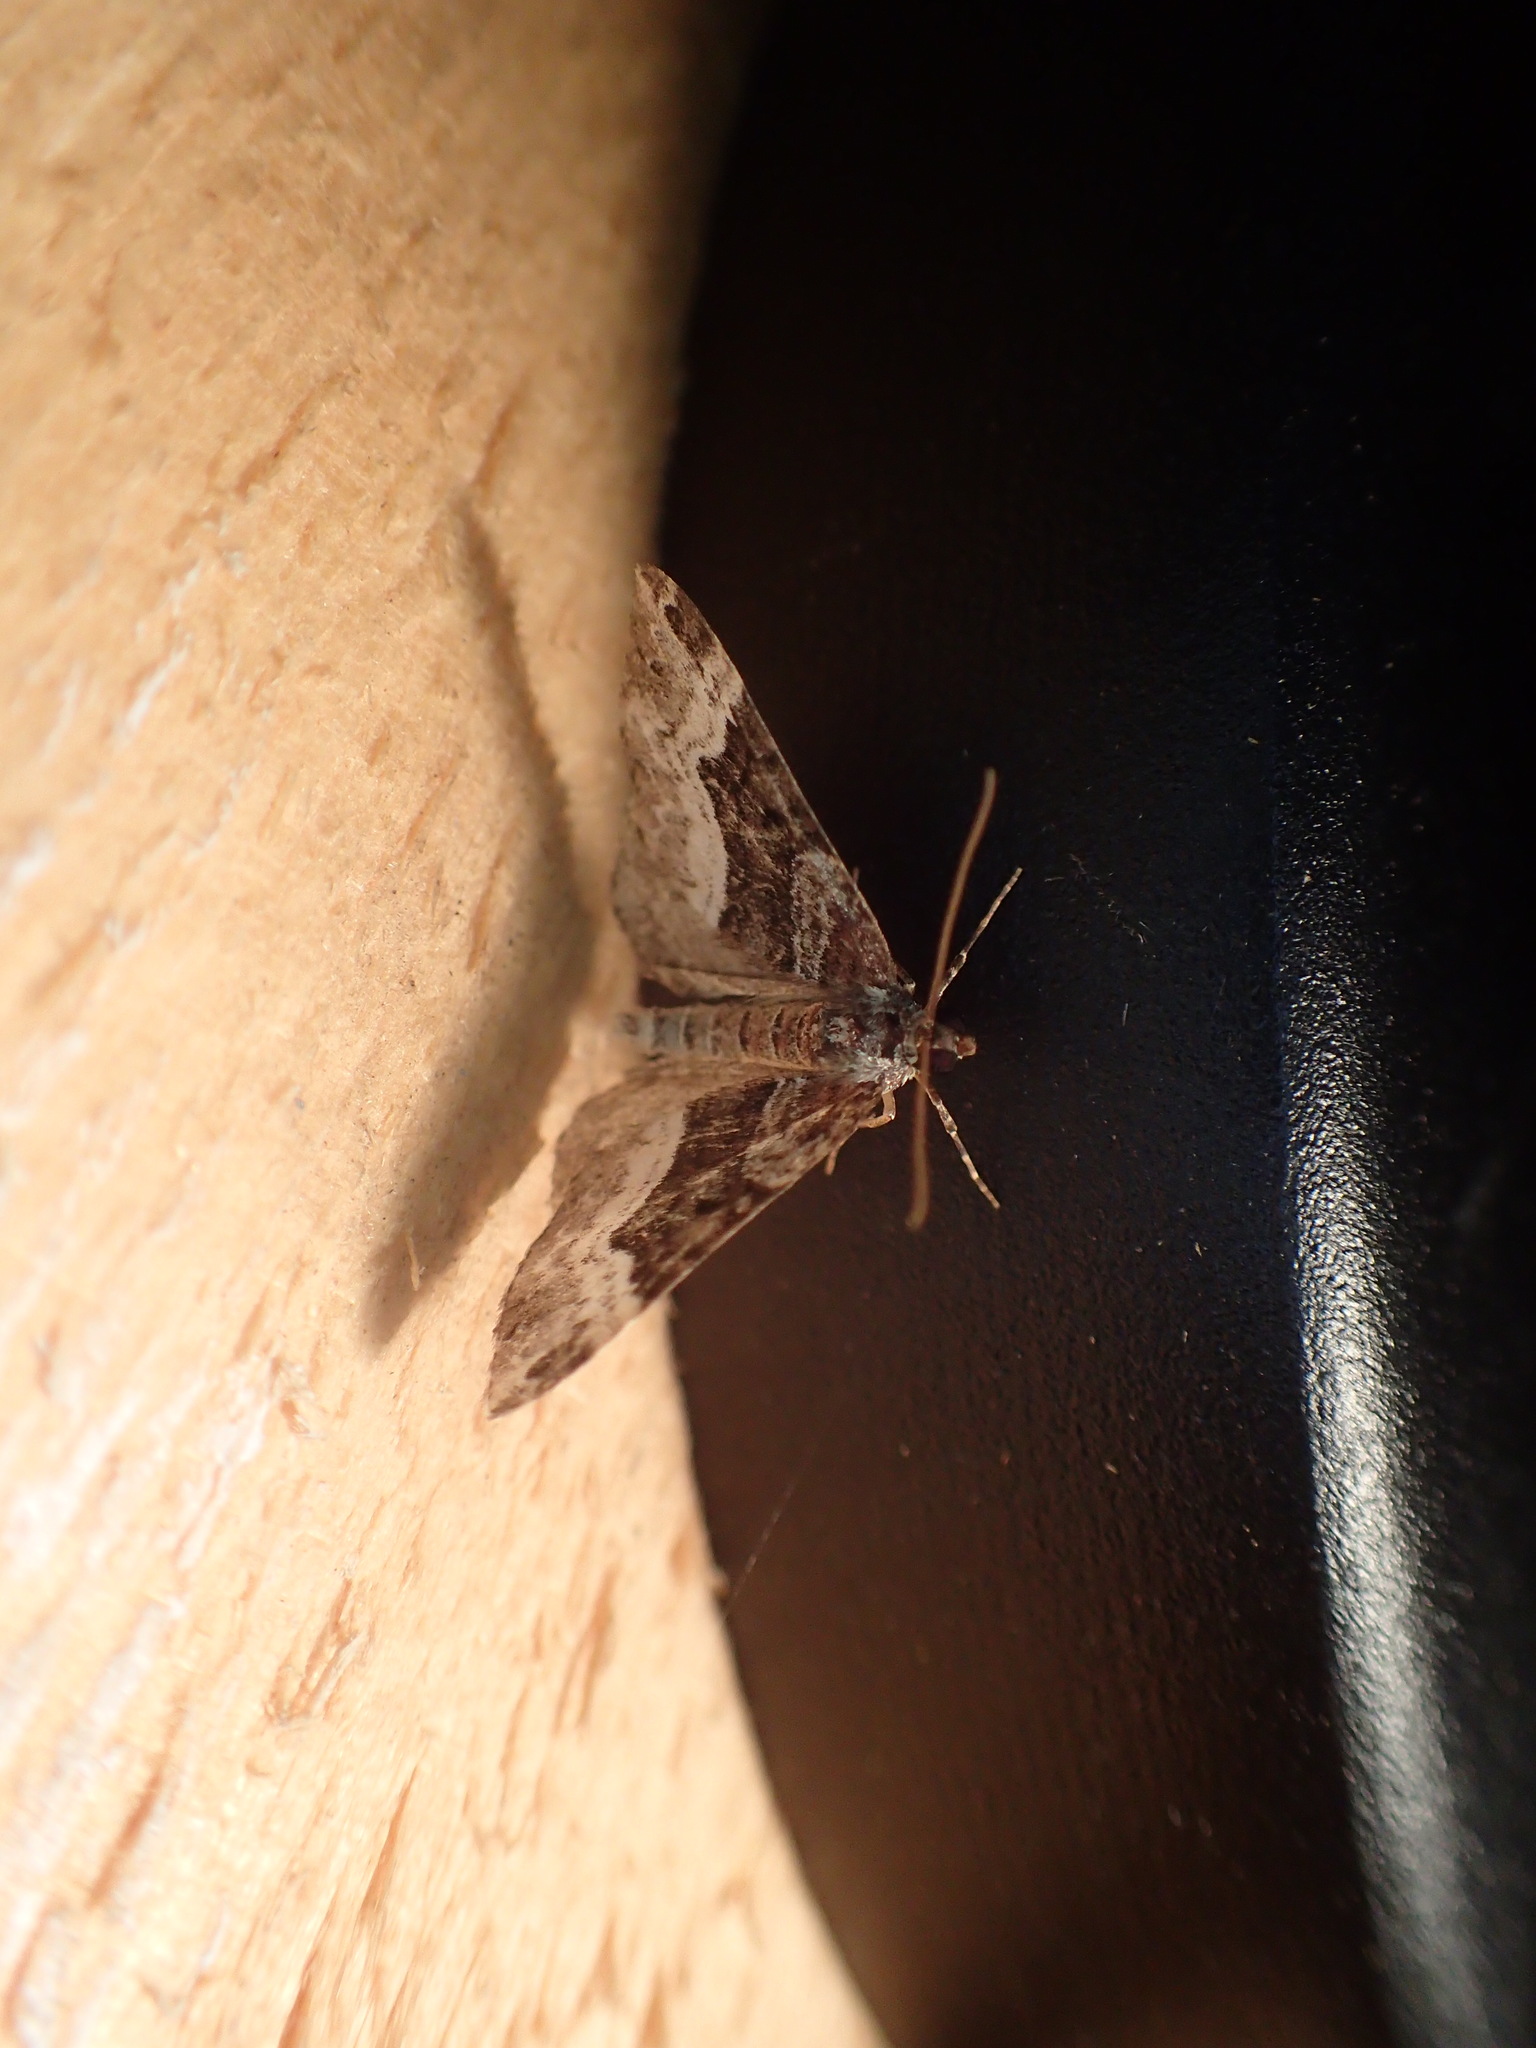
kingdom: Animalia
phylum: Arthropoda
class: Insecta
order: Lepidoptera
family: Geometridae
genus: Euphyia
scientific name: Euphyia intermediata
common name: Sharp-angled carpet
